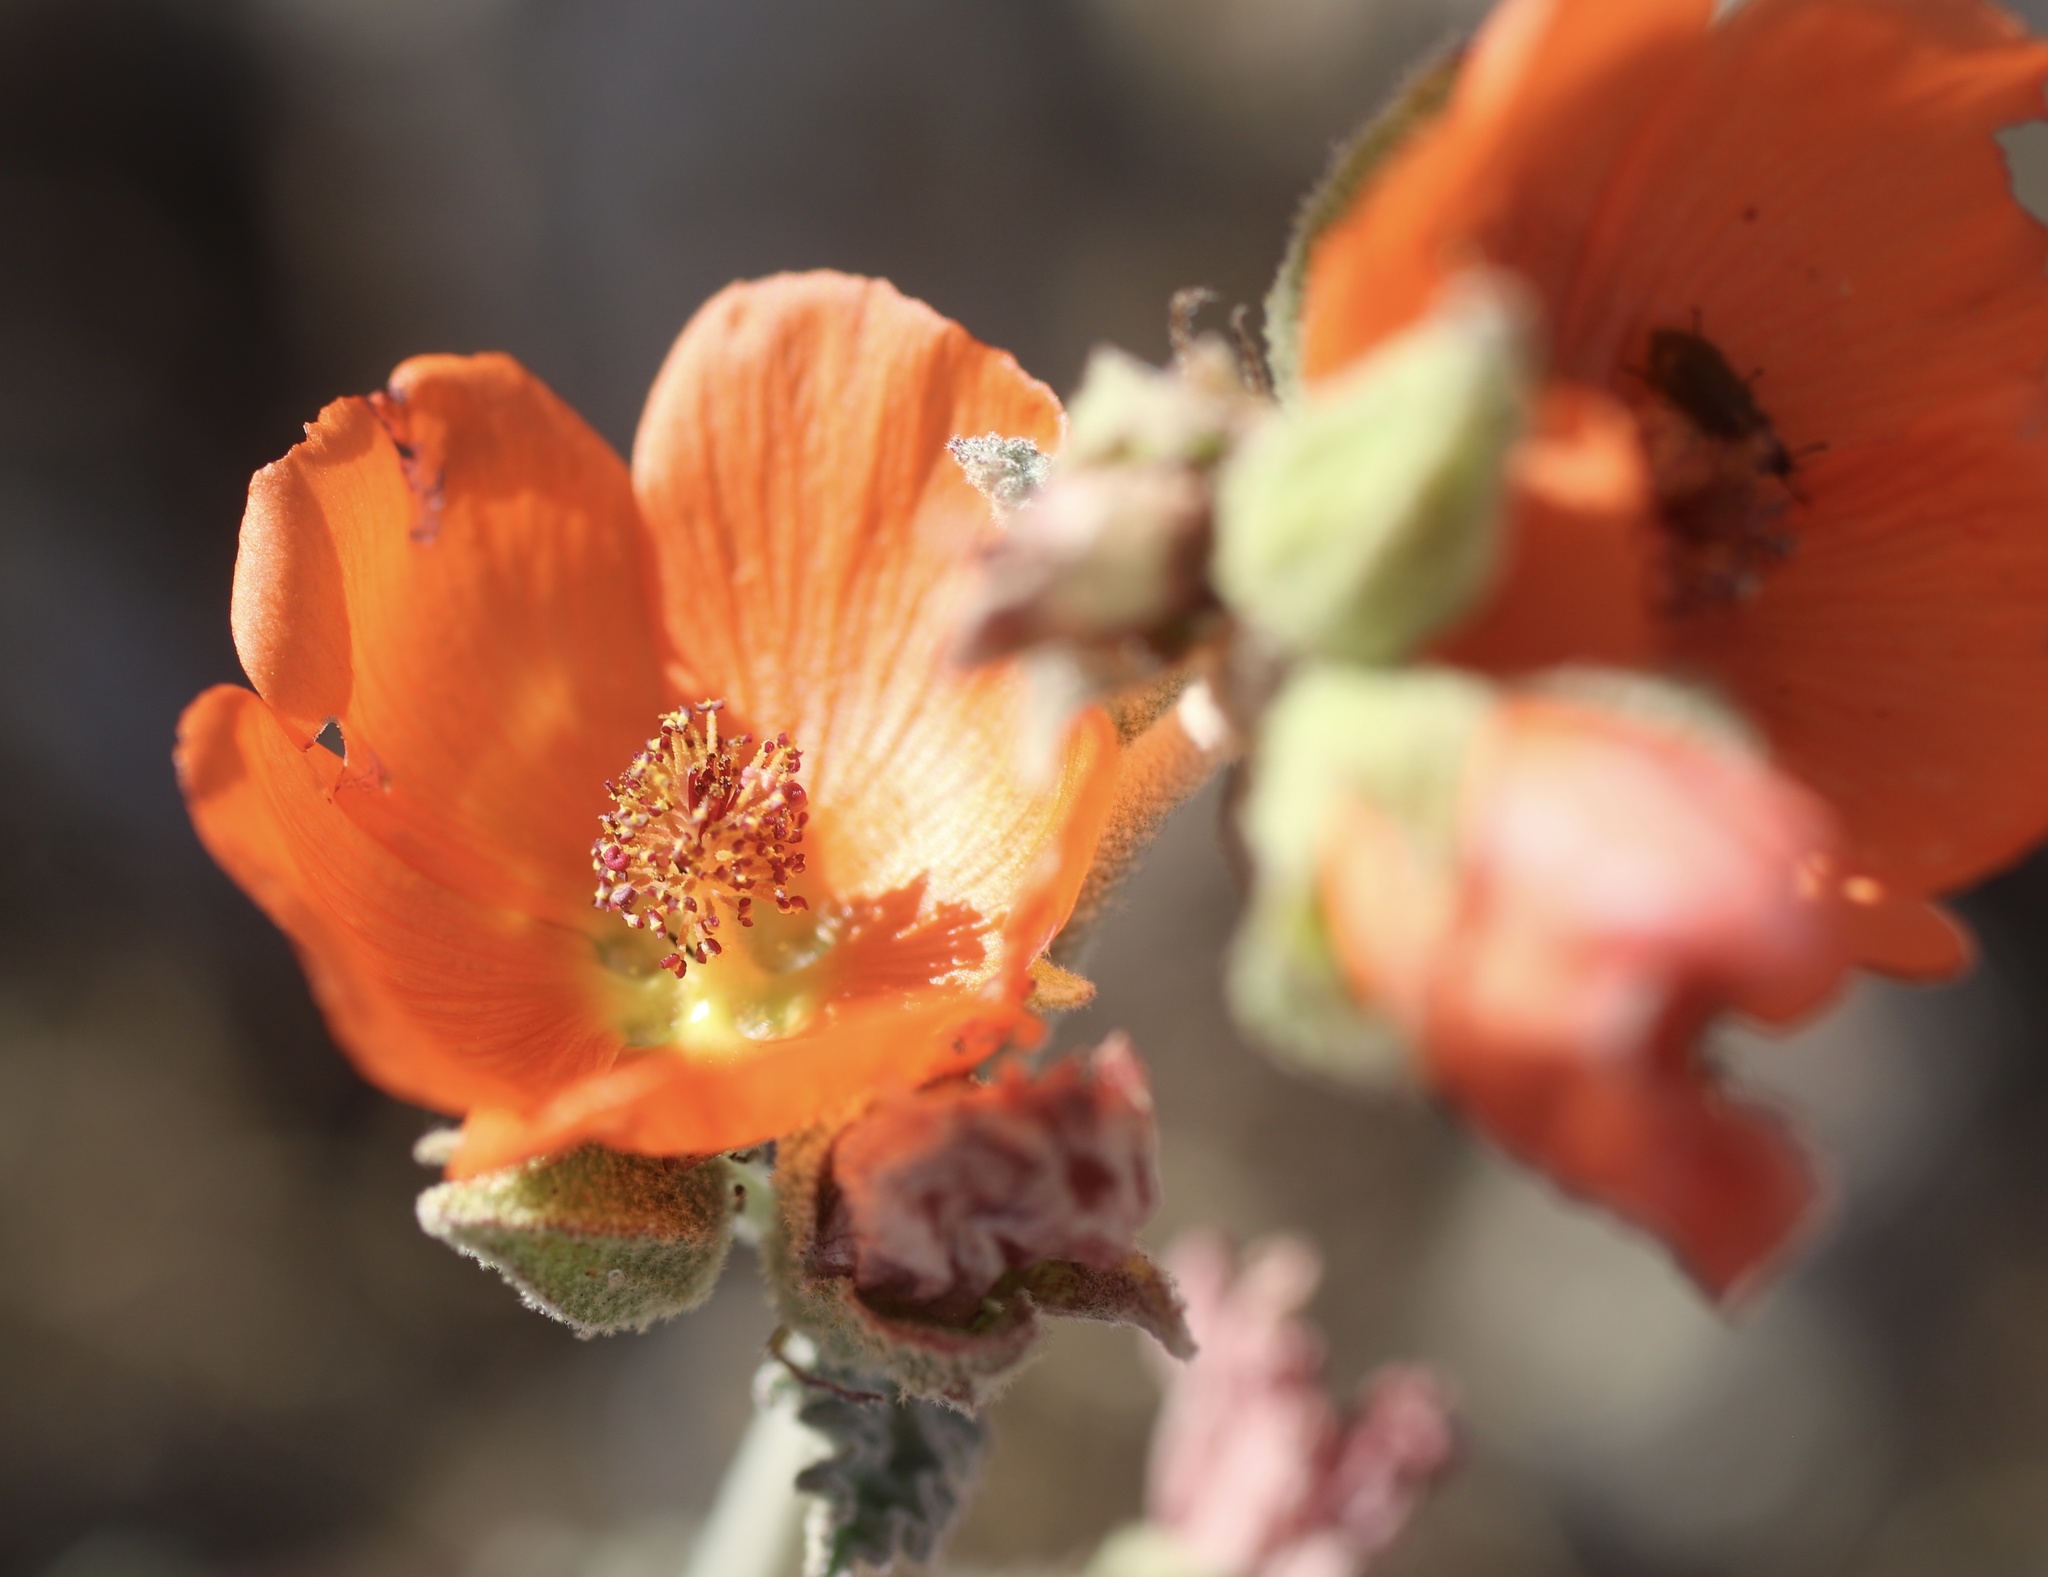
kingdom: Plantae
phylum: Tracheophyta
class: Magnoliopsida
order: Malvales
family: Malvaceae
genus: Sphaeralcea
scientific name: Sphaeralcea ambigua
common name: Apricot globe-mallow
